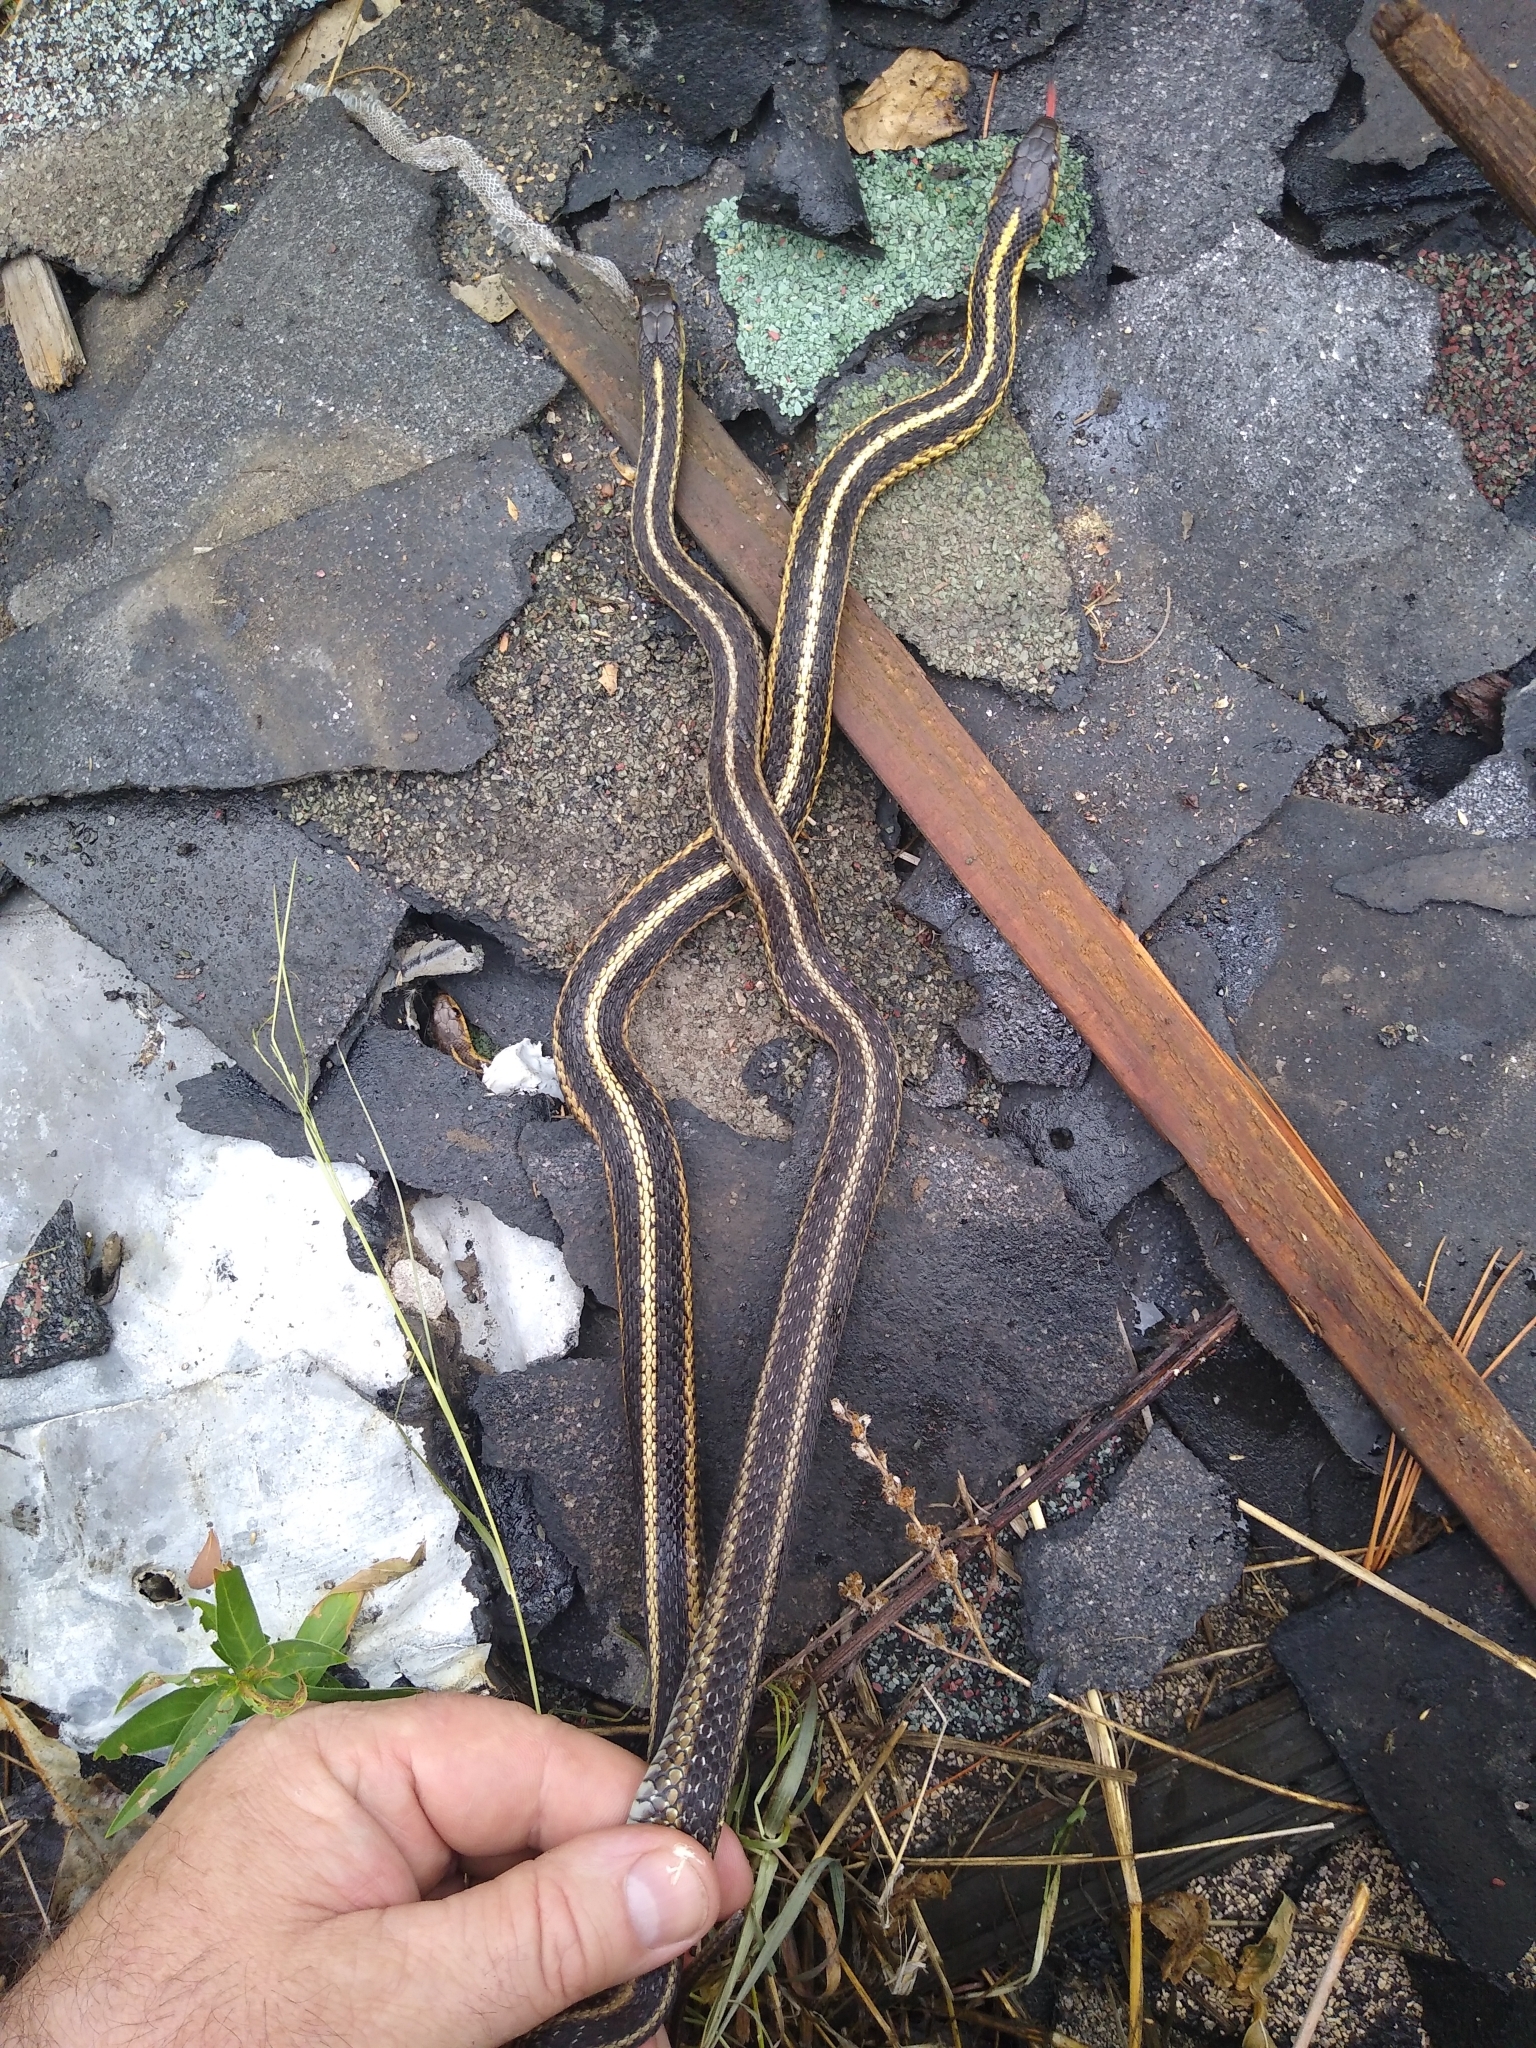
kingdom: Animalia
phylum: Chordata
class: Squamata
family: Colubridae
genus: Thamnophis
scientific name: Thamnophis sirtalis
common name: Common garter snake
